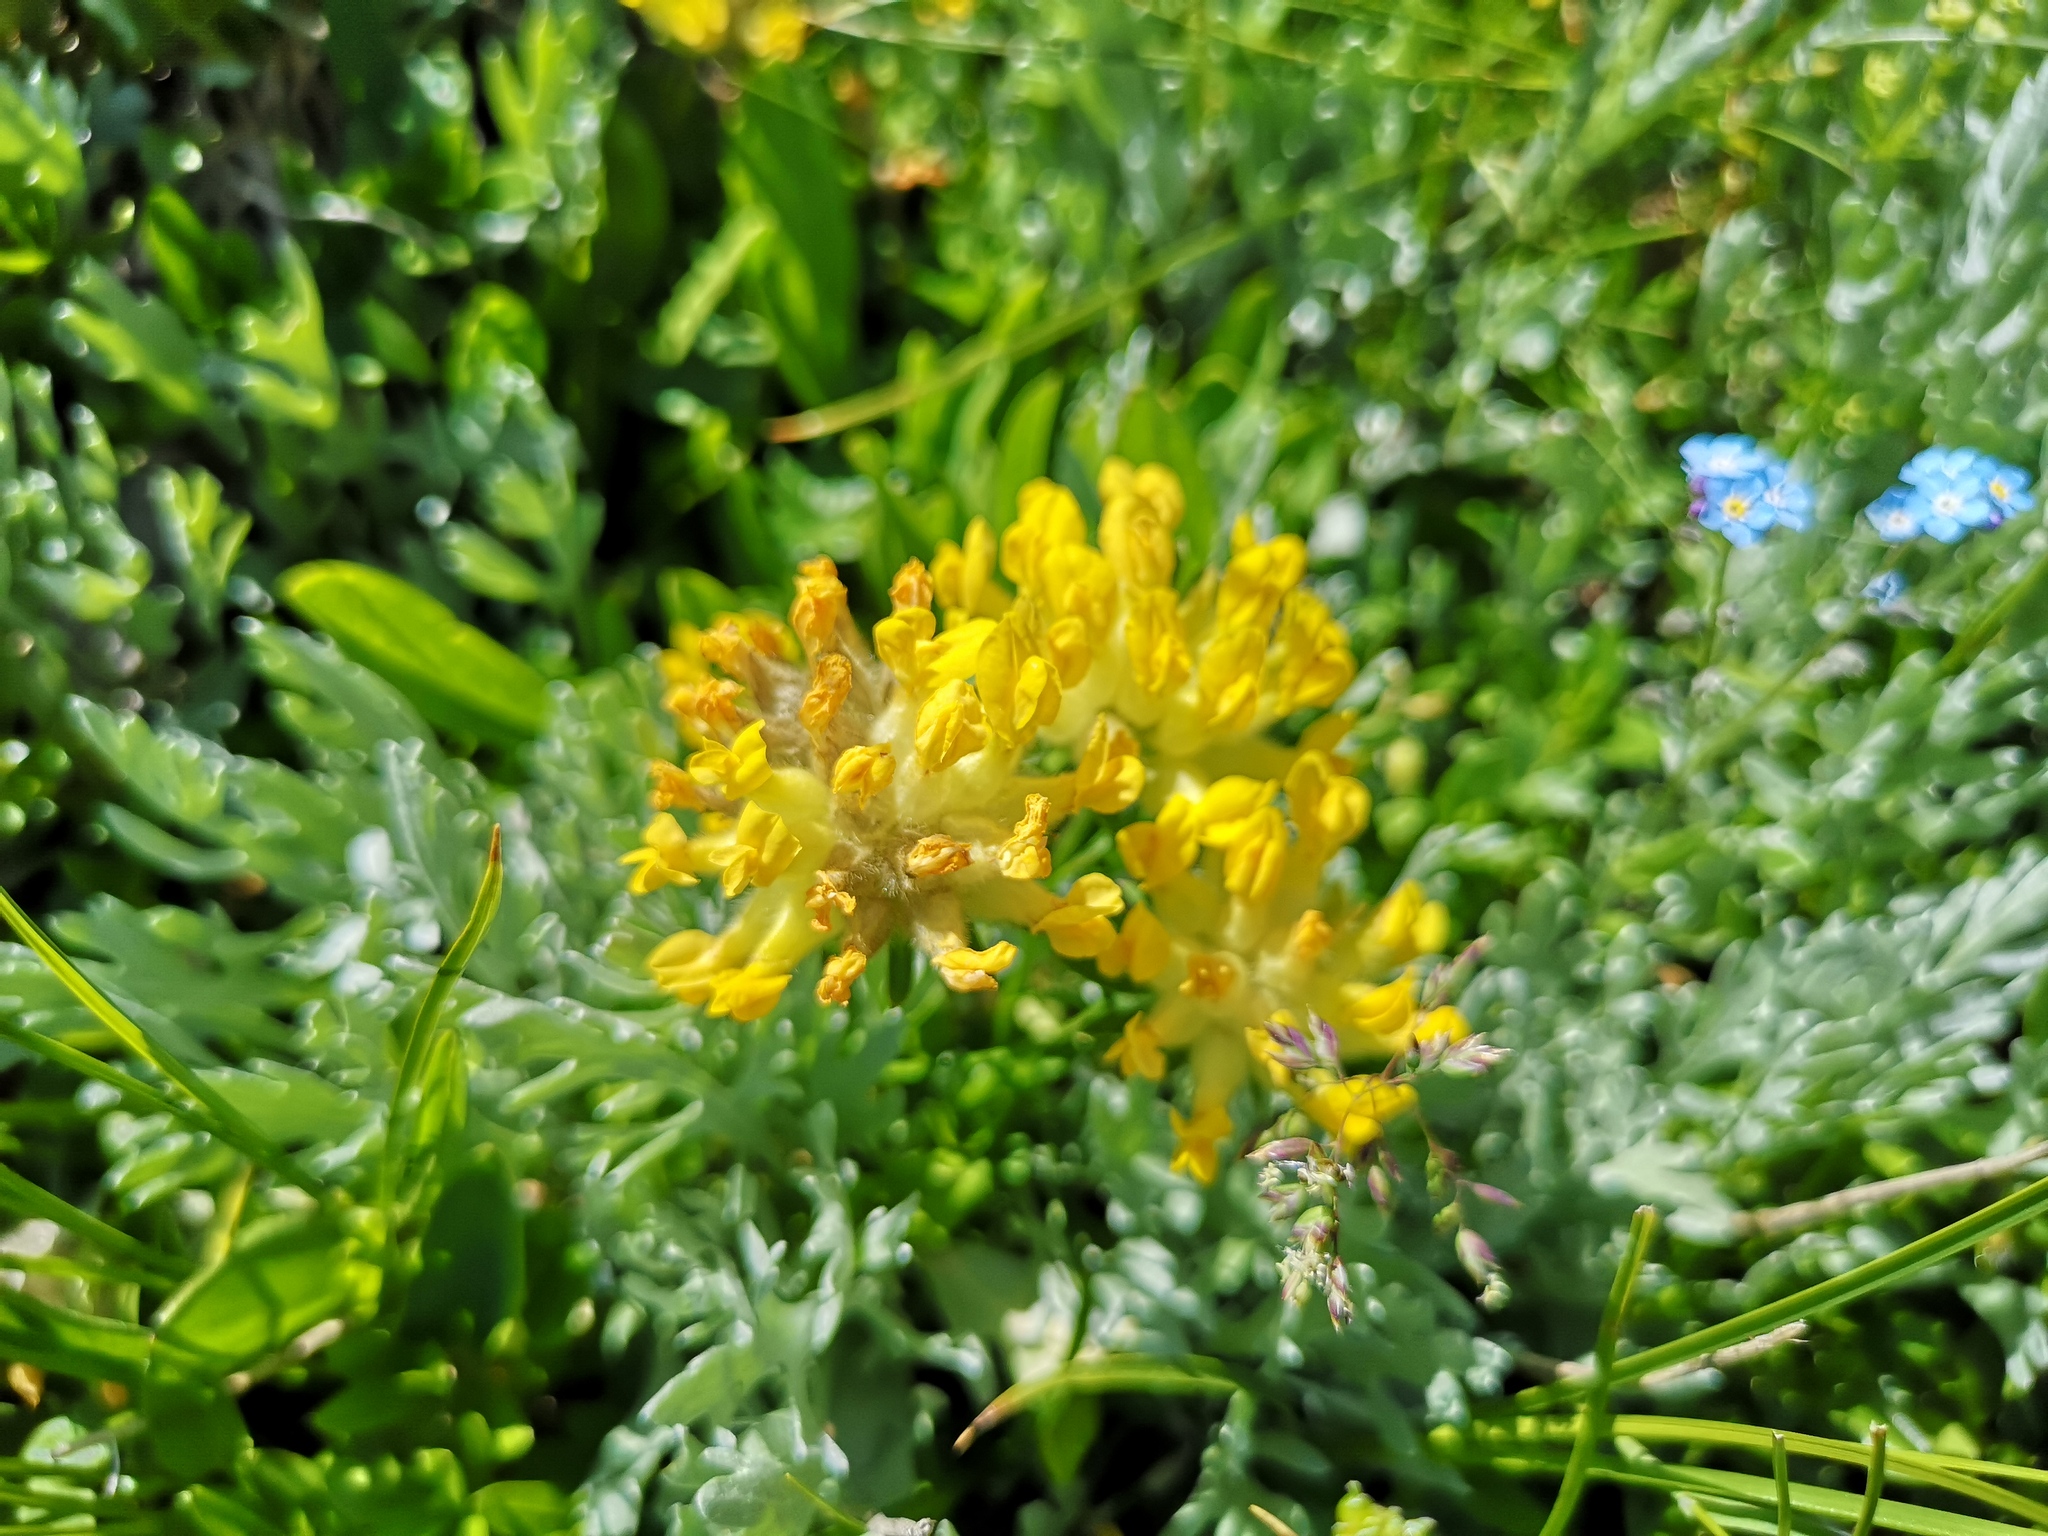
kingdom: Plantae
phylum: Tracheophyta
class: Magnoliopsida
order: Fabales
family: Fabaceae
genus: Anthyllis
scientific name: Anthyllis vulneraria
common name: Kidney vetch
